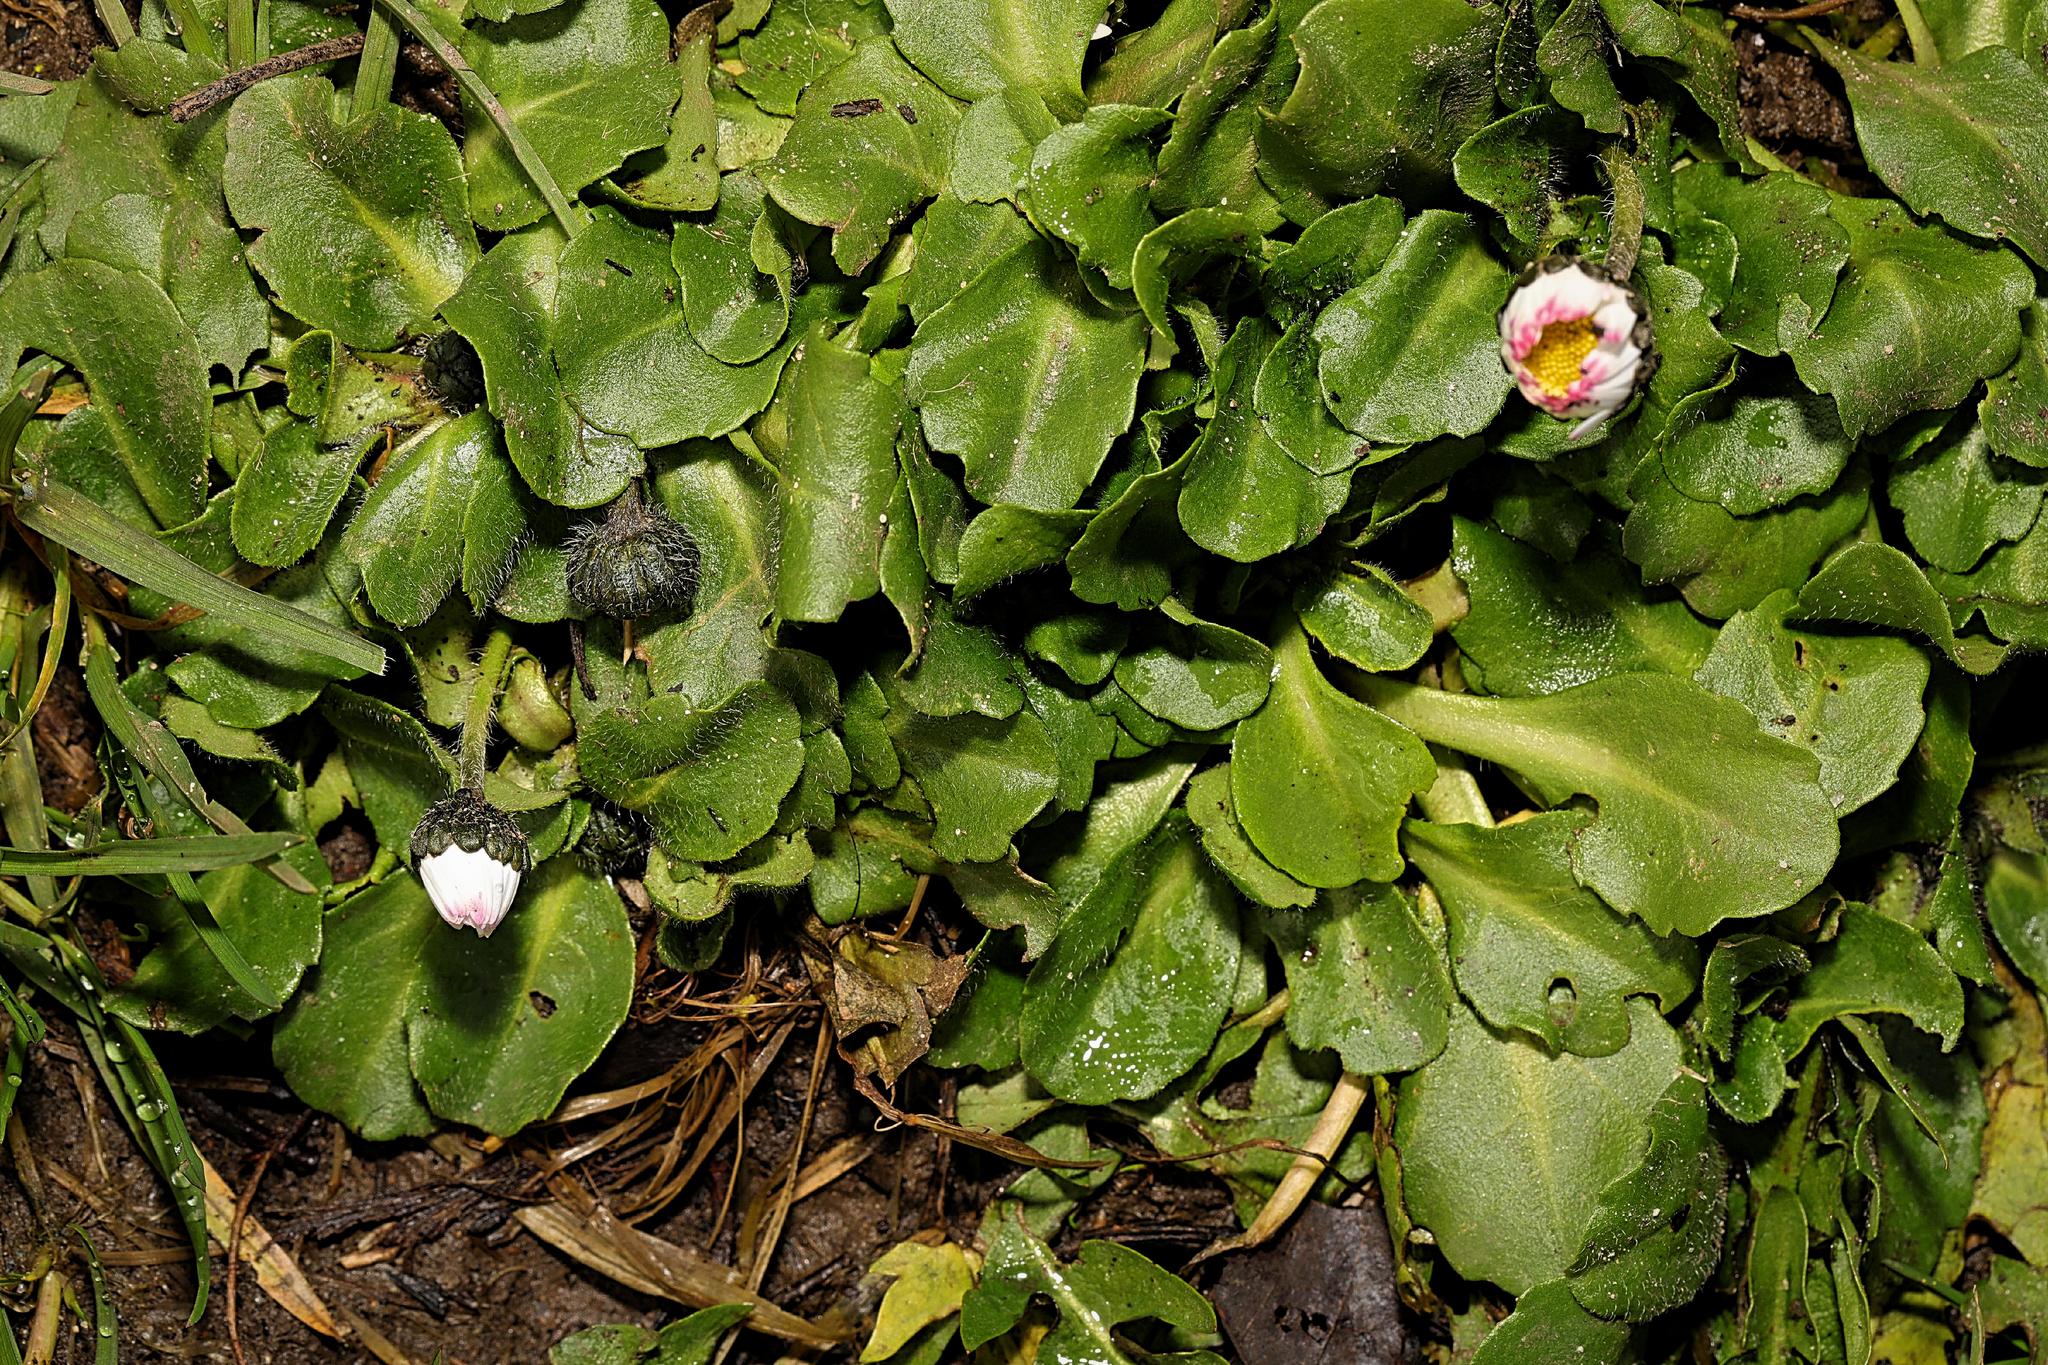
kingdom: Plantae
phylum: Tracheophyta
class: Magnoliopsida
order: Asterales
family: Asteraceae
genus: Bellis
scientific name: Bellis perennis
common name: Lawndaisy
